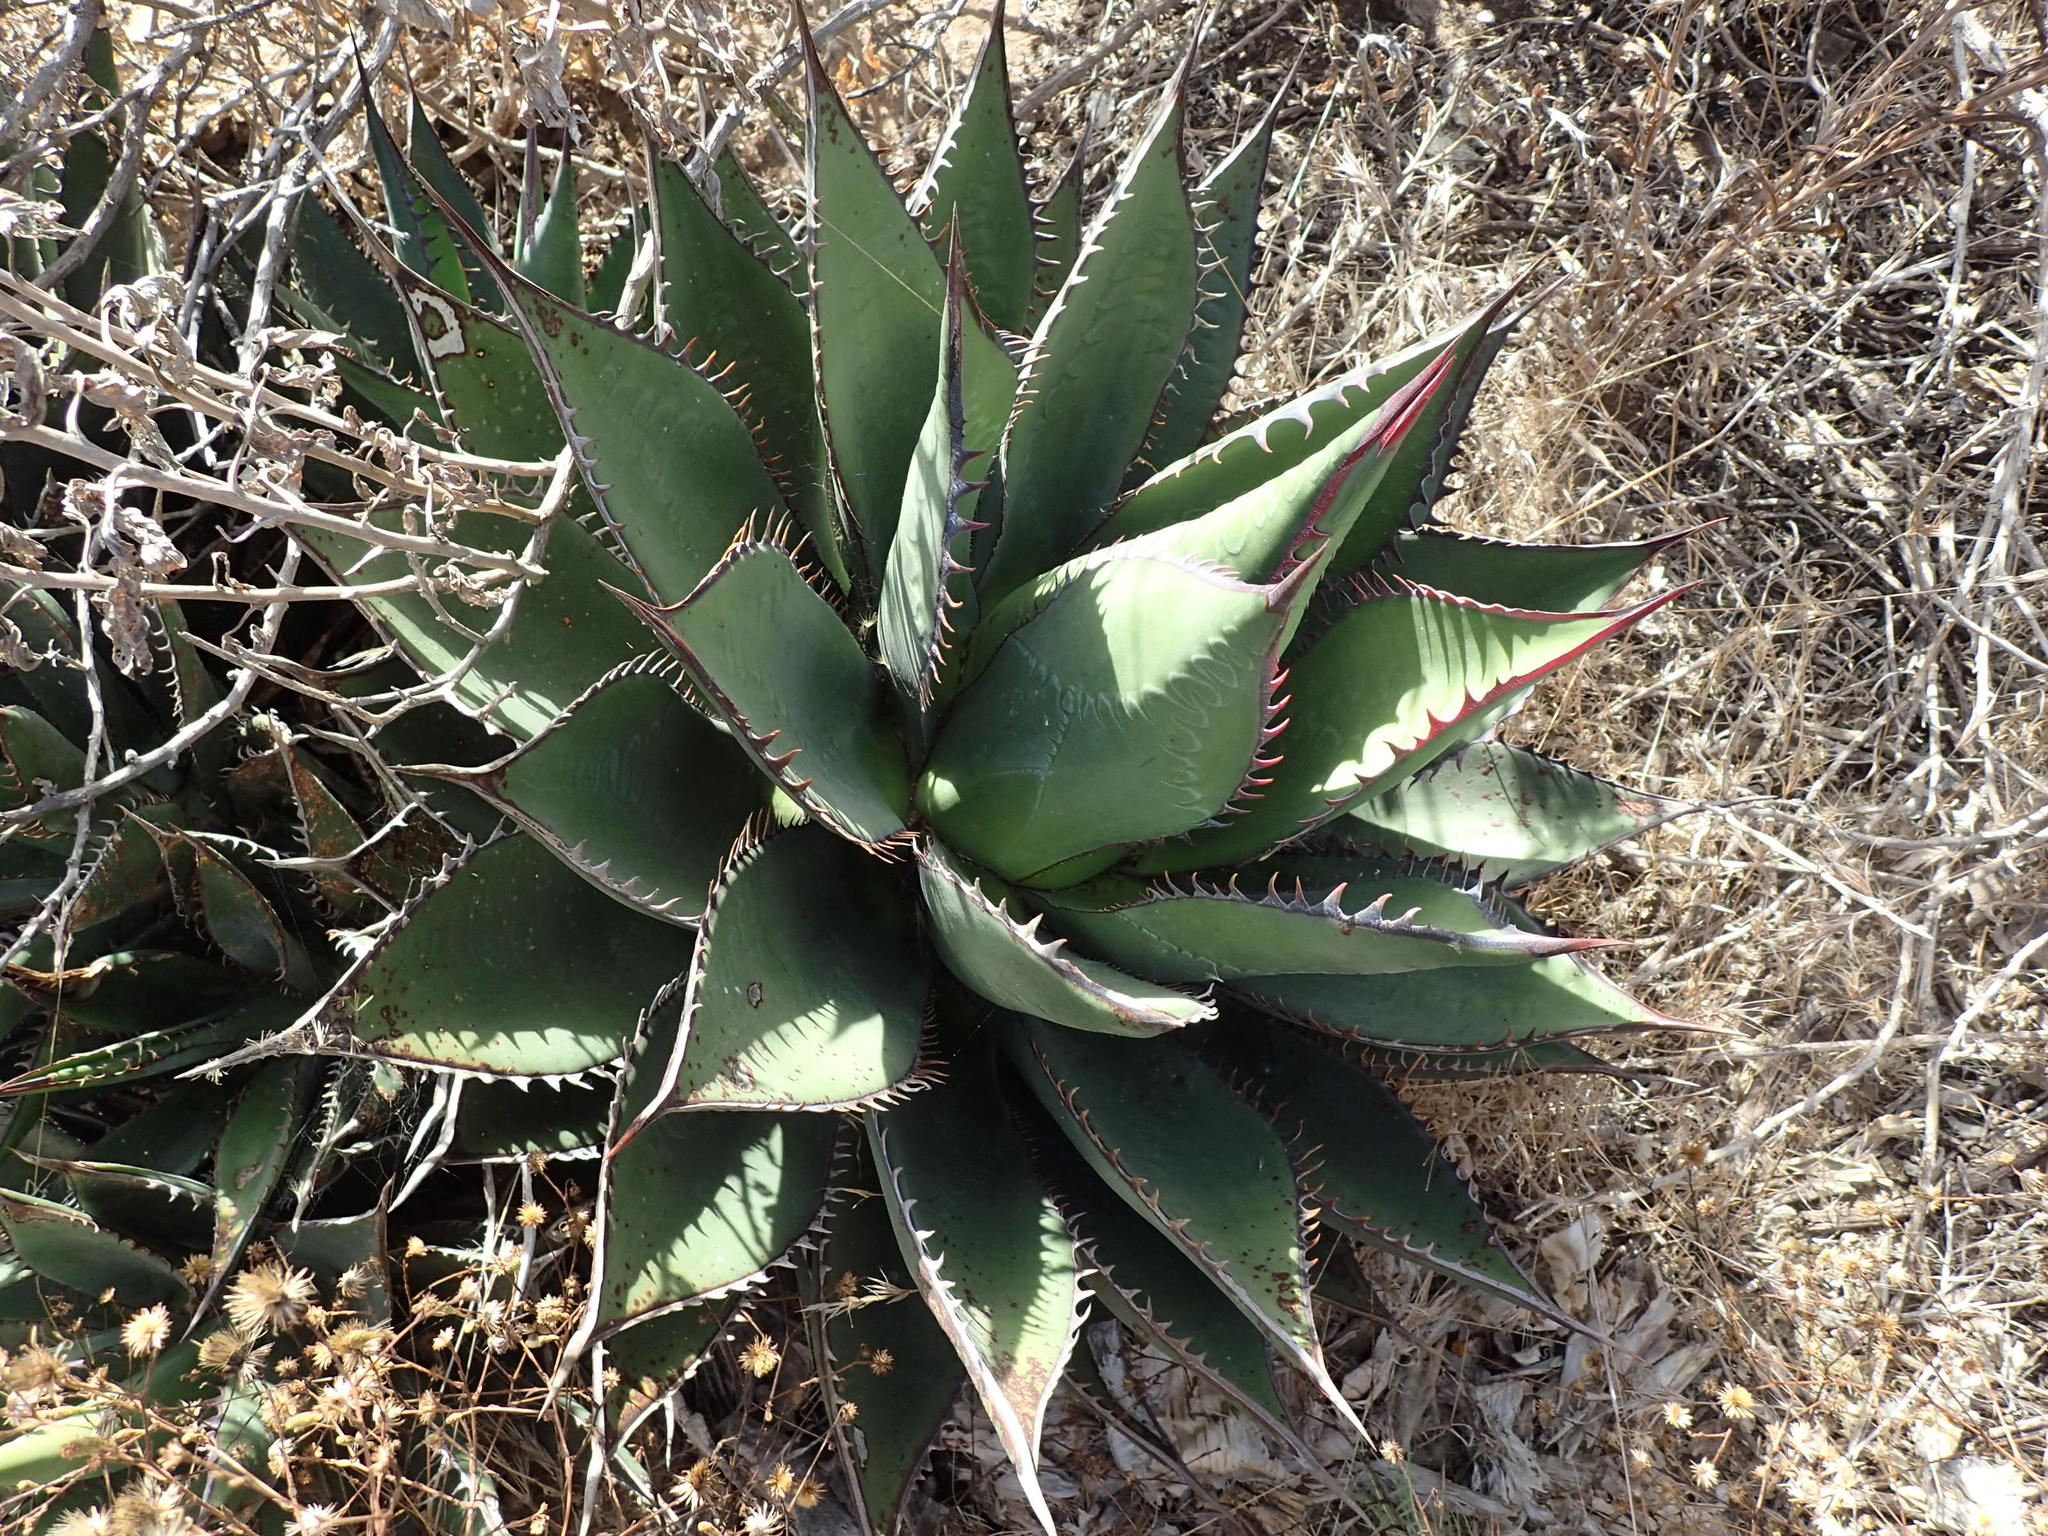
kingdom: Plantae
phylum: Tracheophyta
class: Liliopsida
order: Asparagales
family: Asparagaceae
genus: Agave
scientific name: Agave shawii
